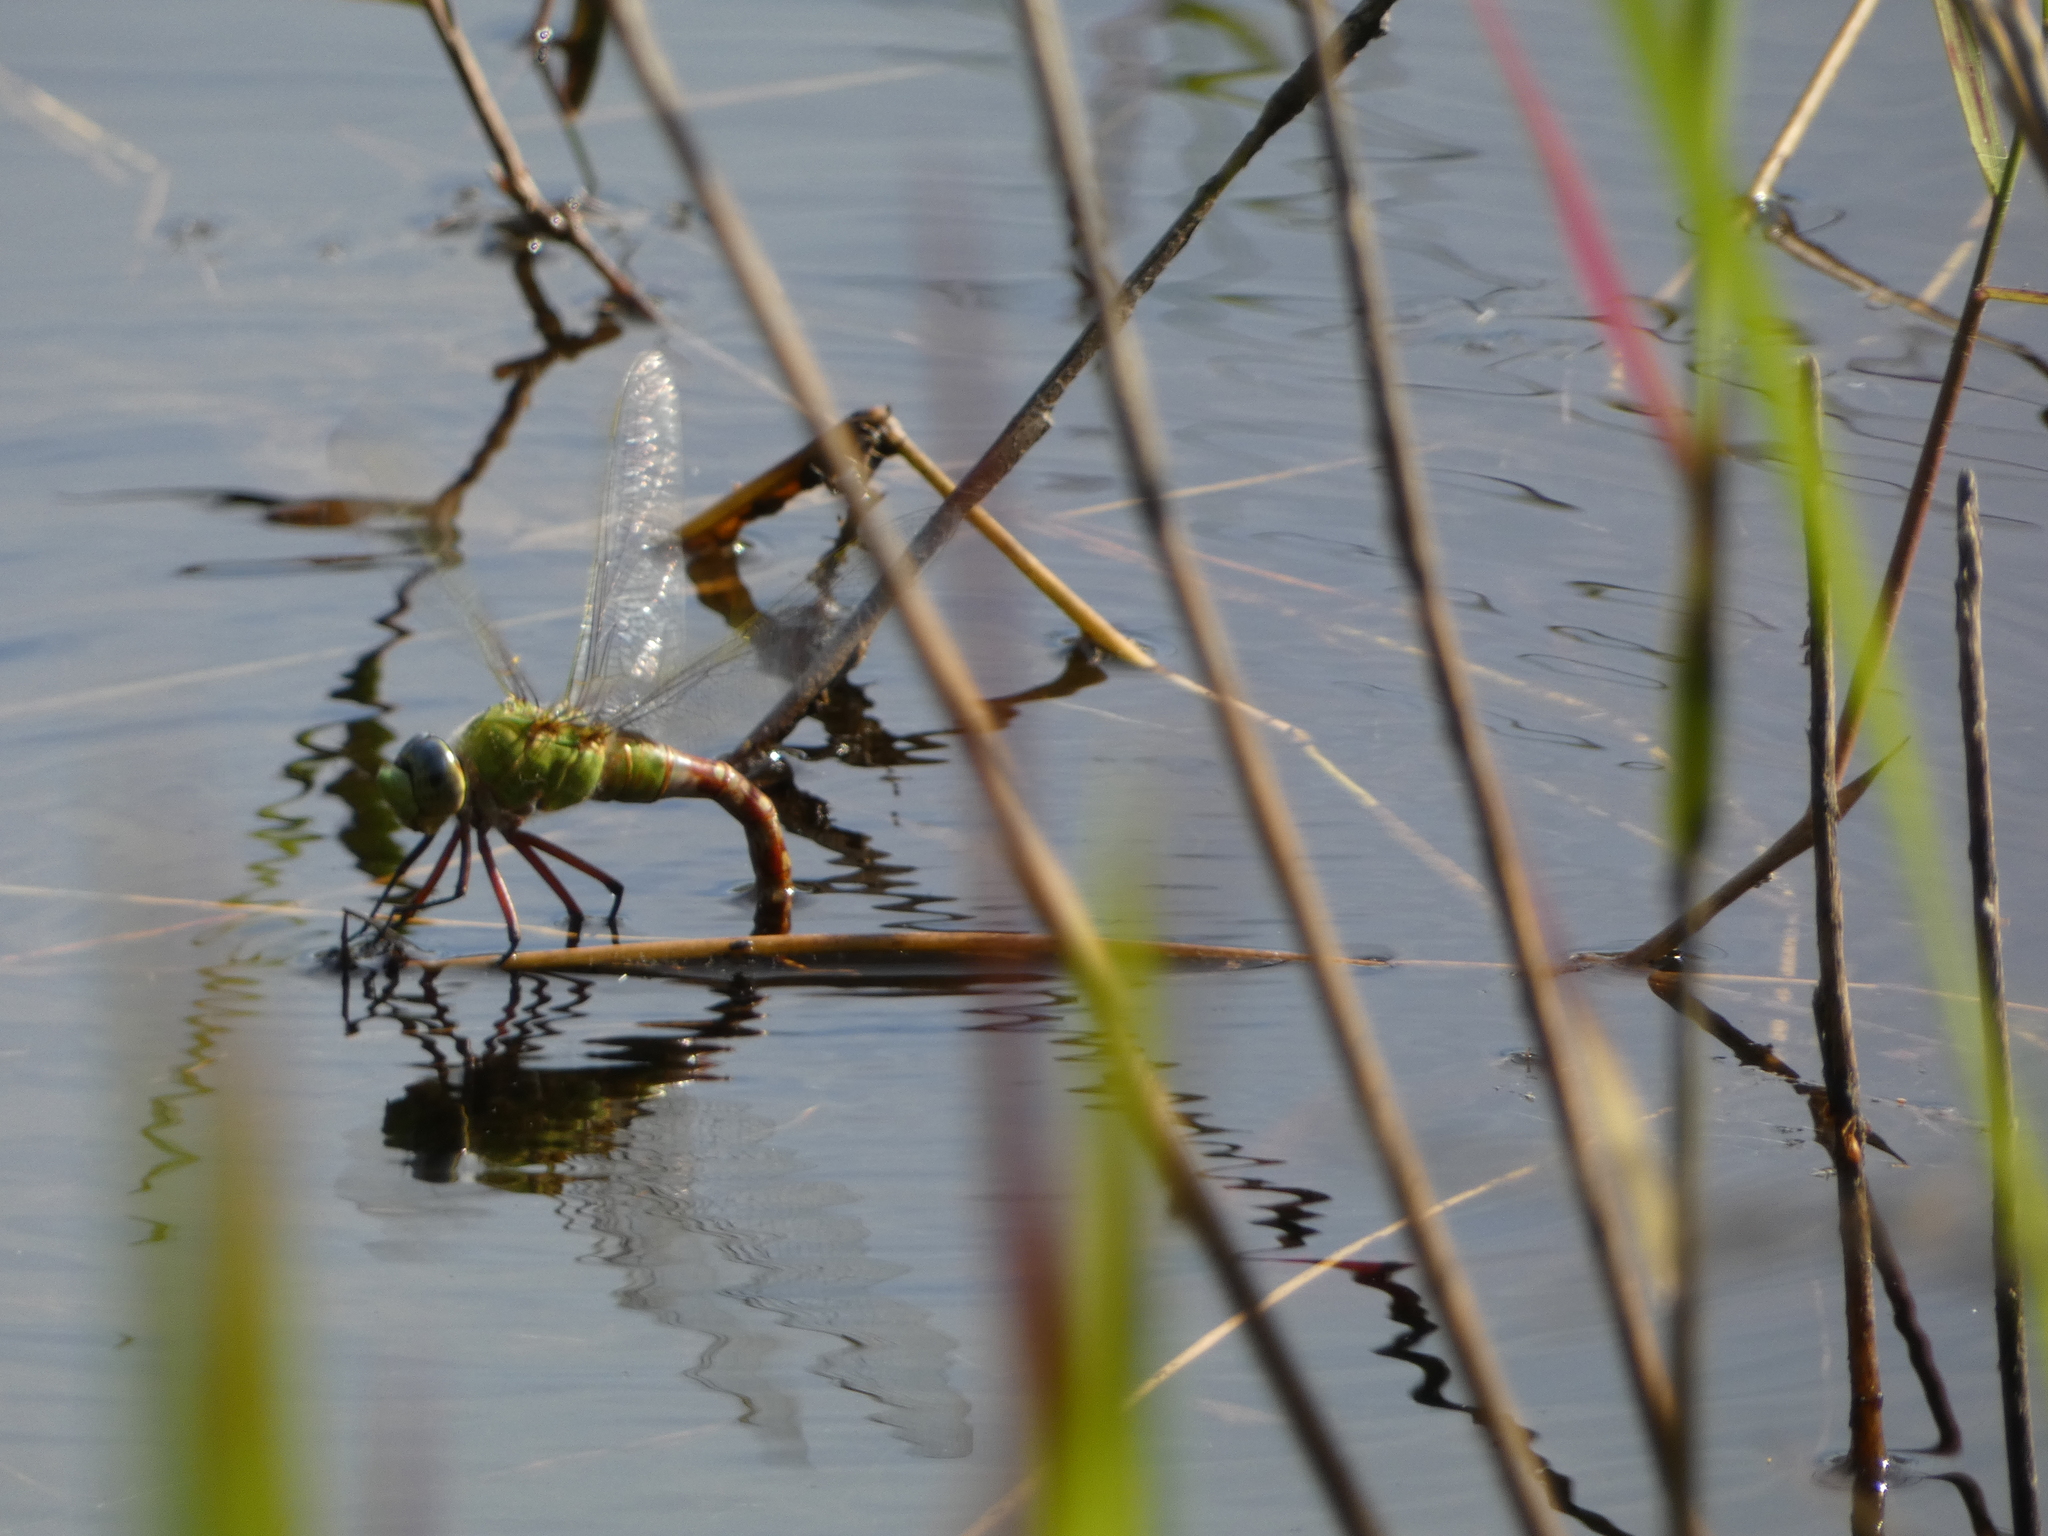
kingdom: Animalia
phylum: Arthropoda
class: Insecta
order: Odonata
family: Aeshnidae
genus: Anax
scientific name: Anax longipes
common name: Comet darner
